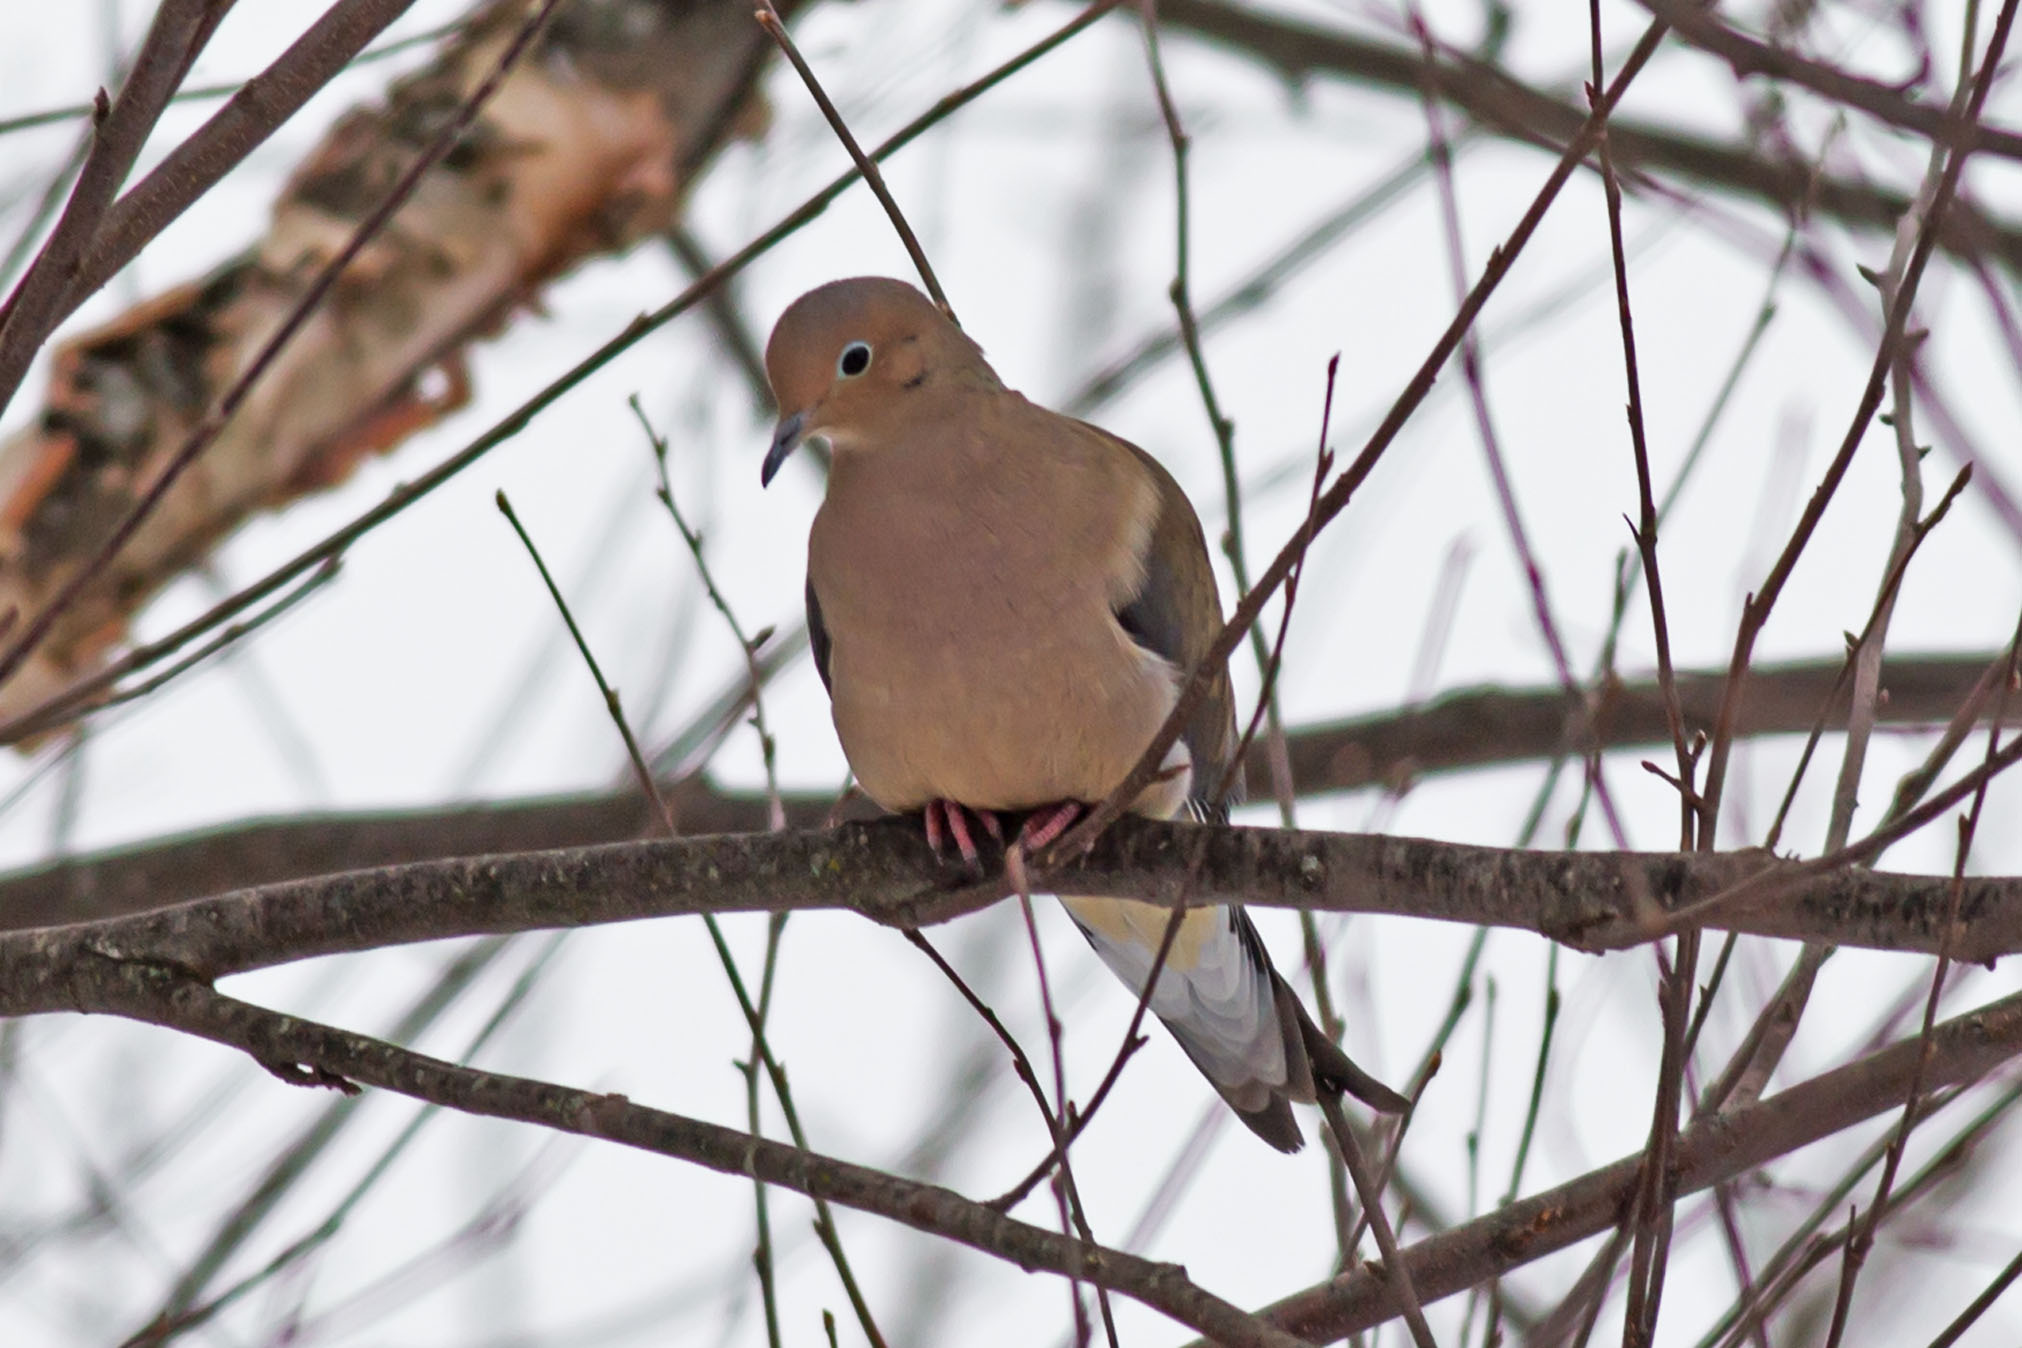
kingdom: Animalia
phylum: Chordata
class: Aves
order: Columbiformes
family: Columbidae
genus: Zenaida
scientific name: Zenaida macroura
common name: Mourning dove
